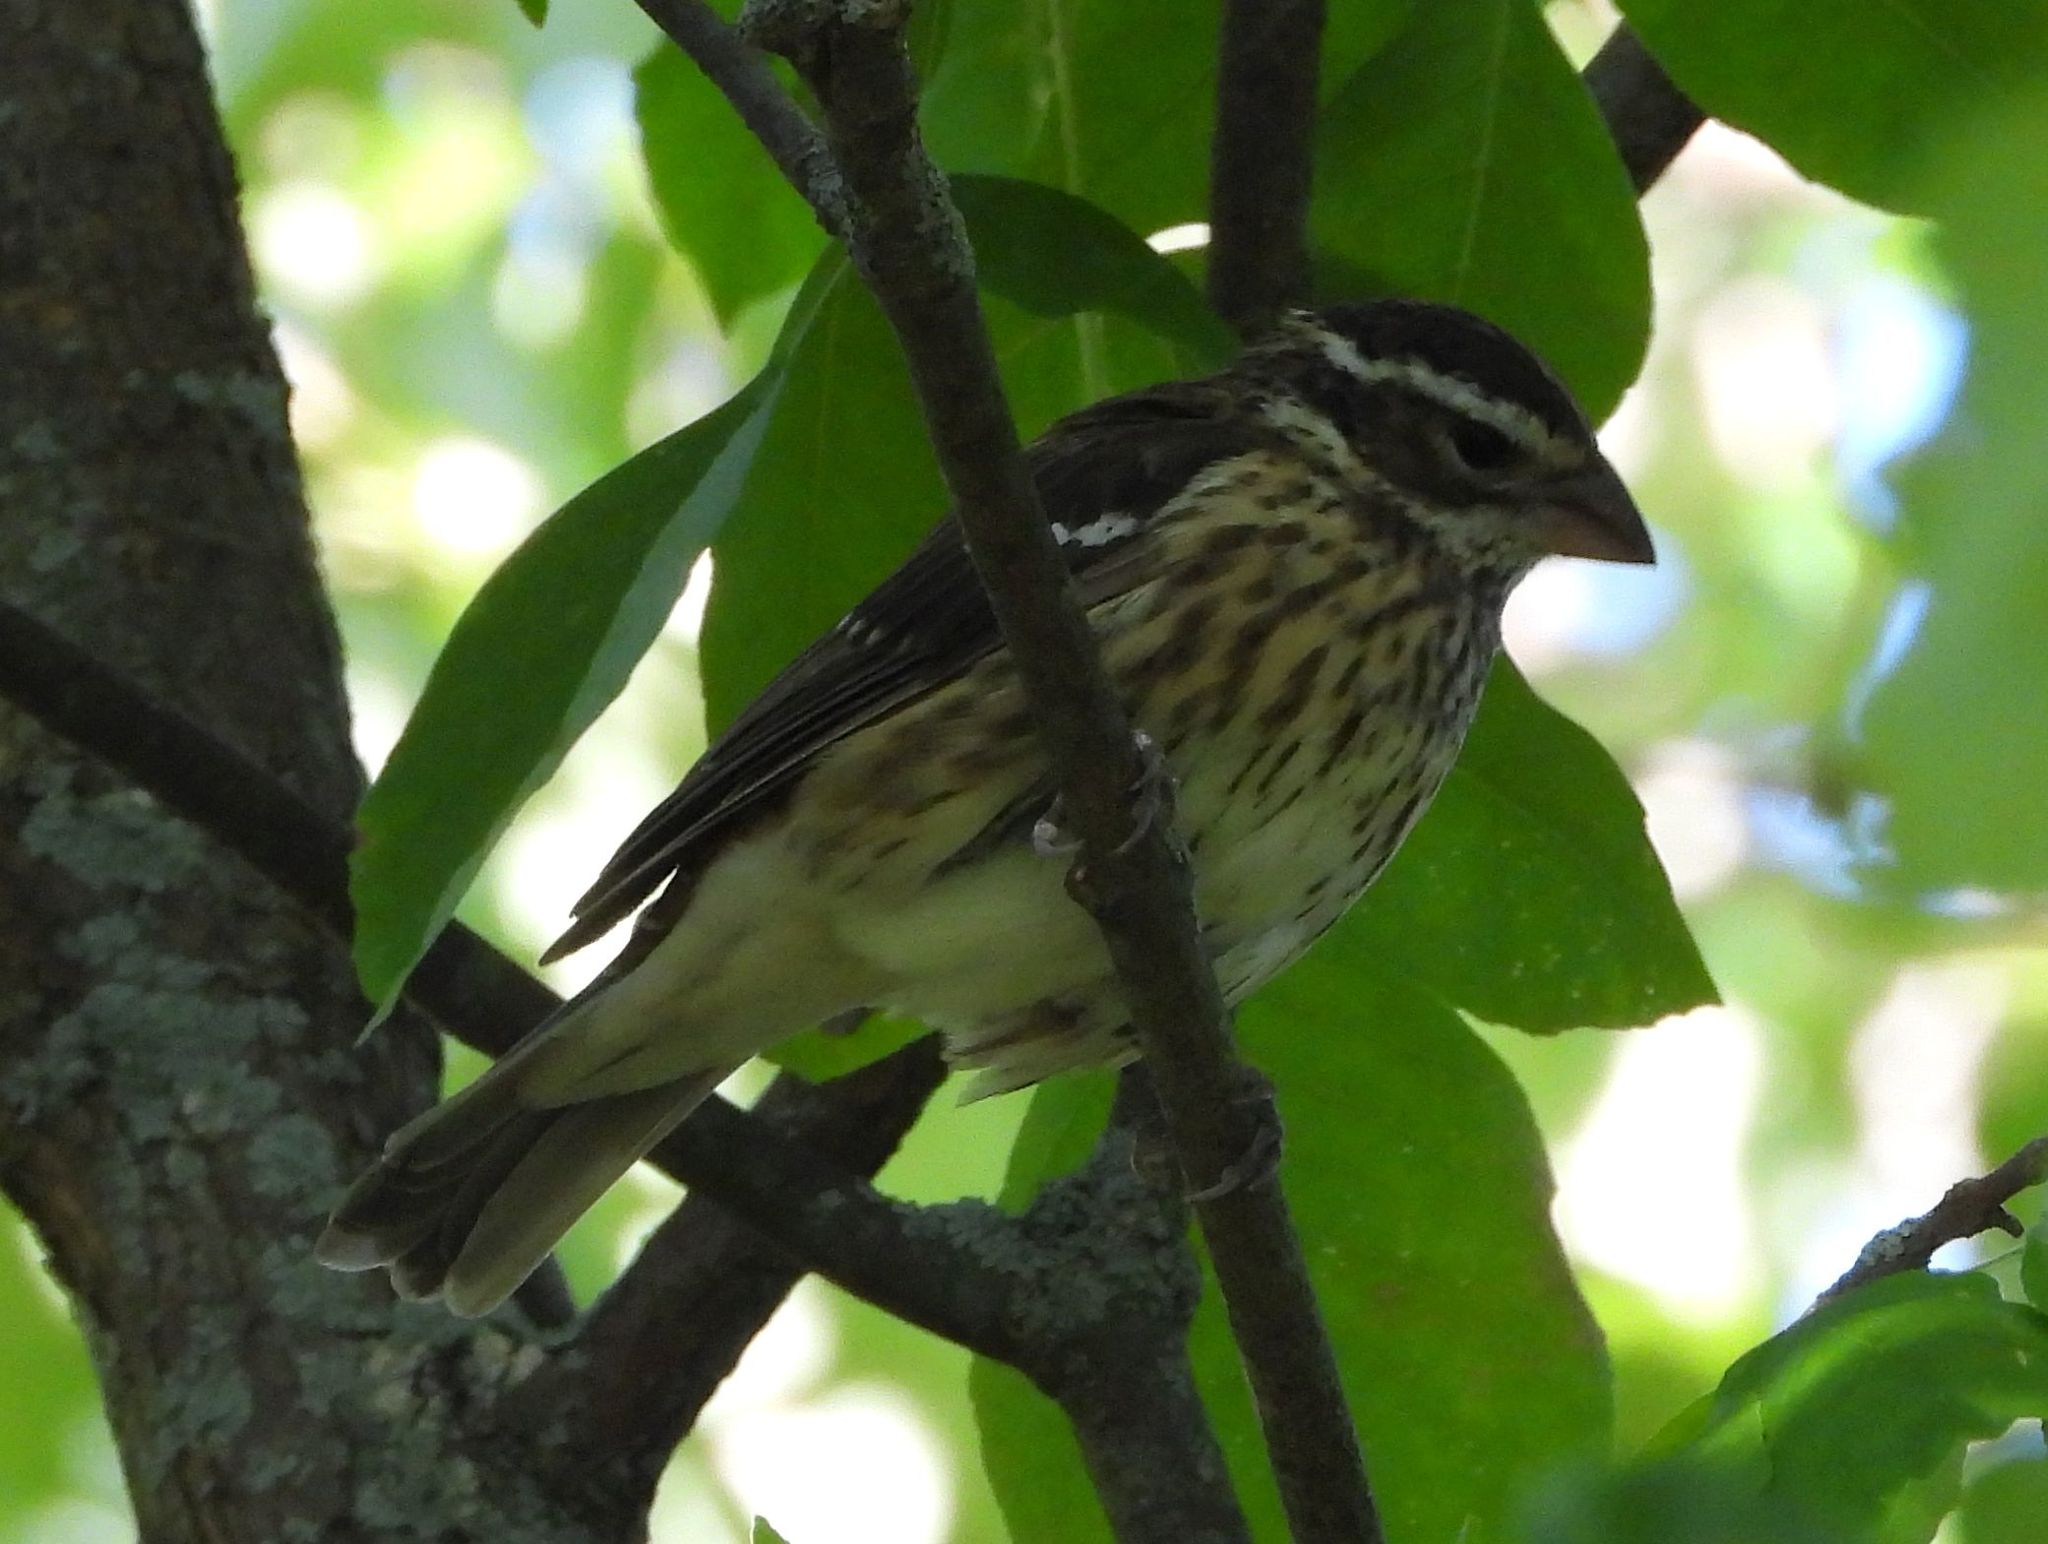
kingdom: Animalia
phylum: Chordata
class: Aves
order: Passeriformes
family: Cardinalidae
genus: Pheucticus
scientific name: Pheucticus ludovicianus
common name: Rose-breasted grosbeak
